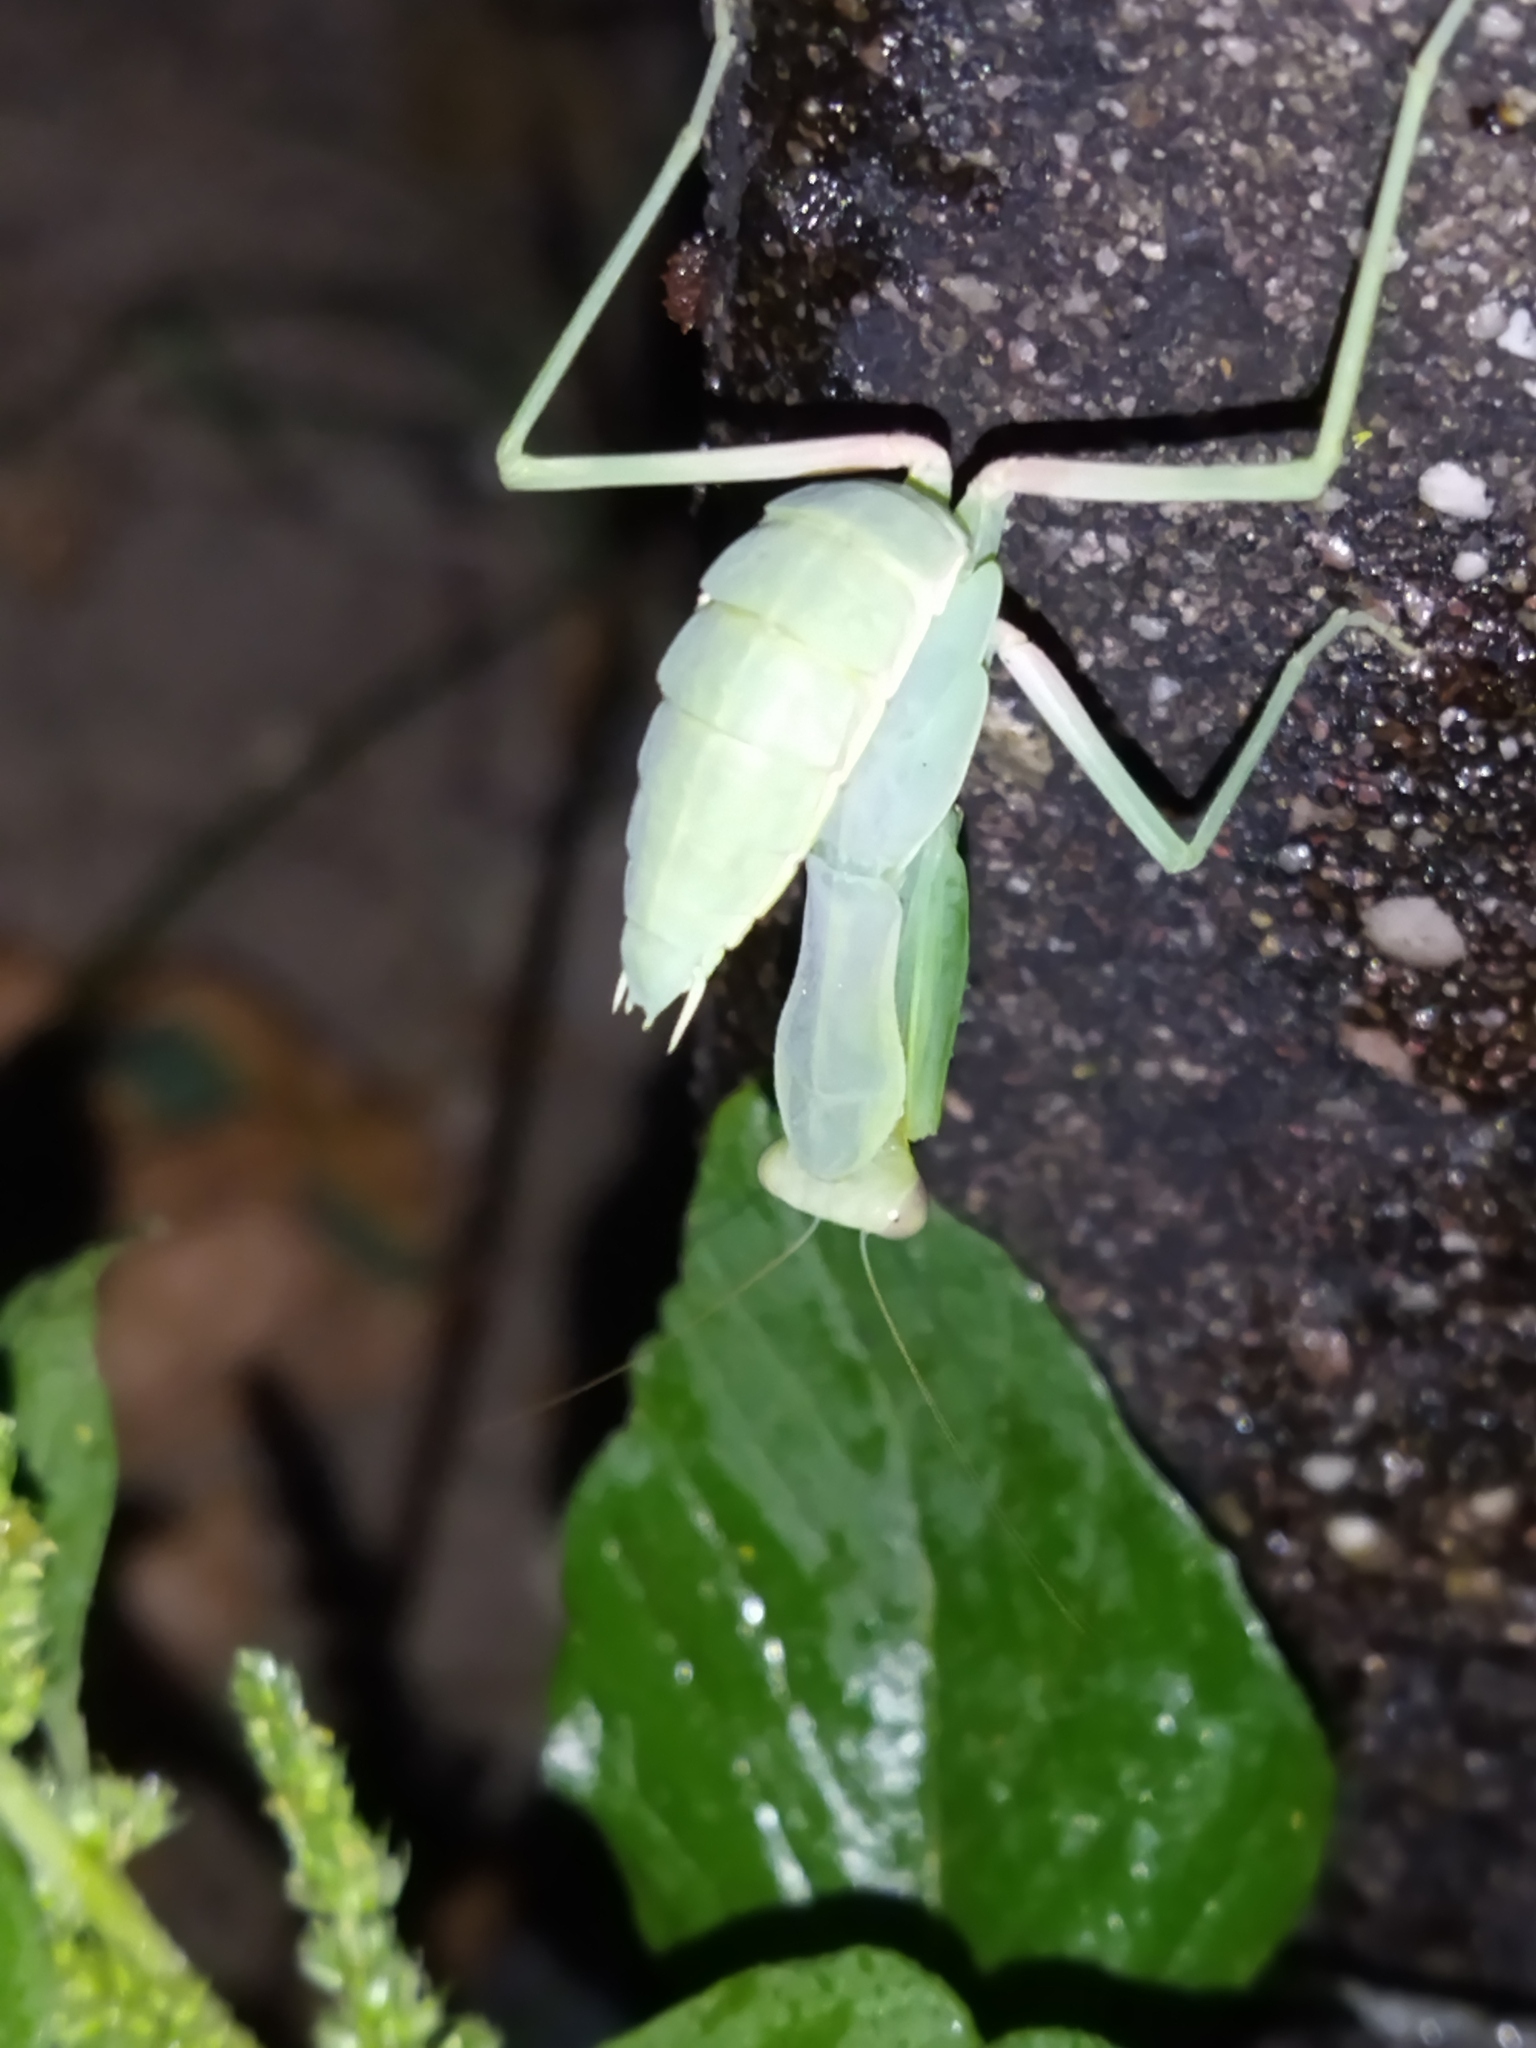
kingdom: Animalia
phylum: Arthropoda
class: Insecta
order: Mantodea
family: Mantidae
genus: Hierodula
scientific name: Hierodula transcaucasica
